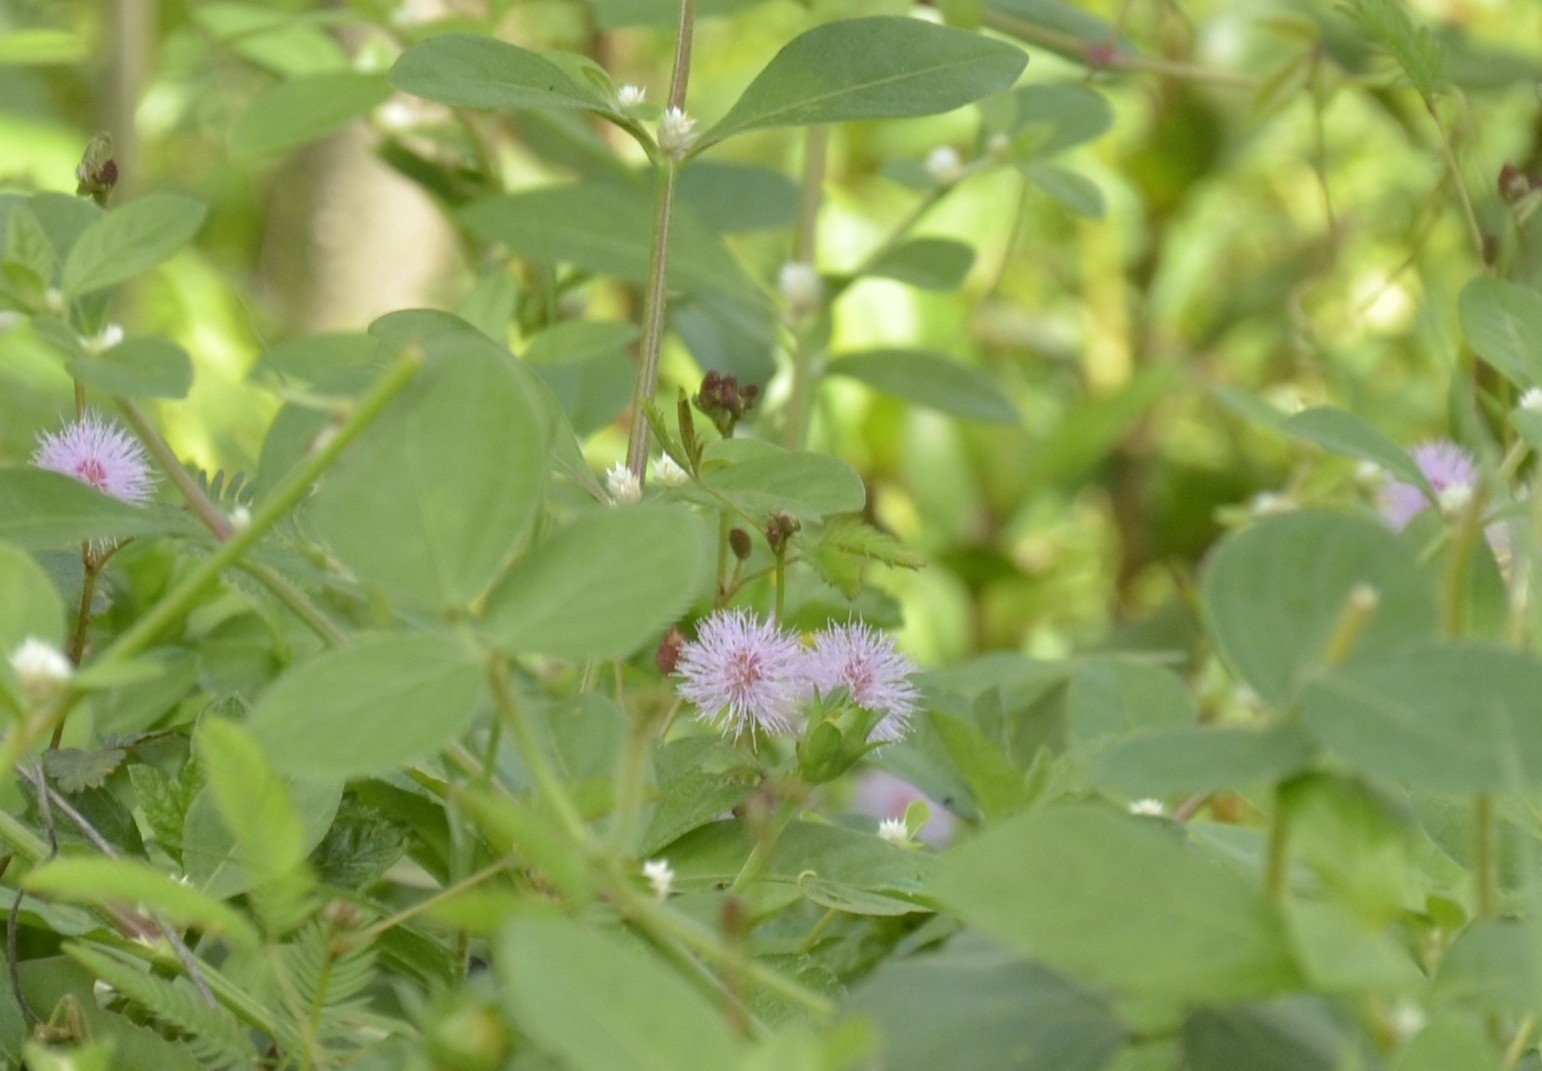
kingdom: Plantae
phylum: Tracheophyta
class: Magnoliopsida
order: Fabales
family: Fabaceae
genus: Mimosa
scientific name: Mimosa pudica
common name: Sensitive plant
